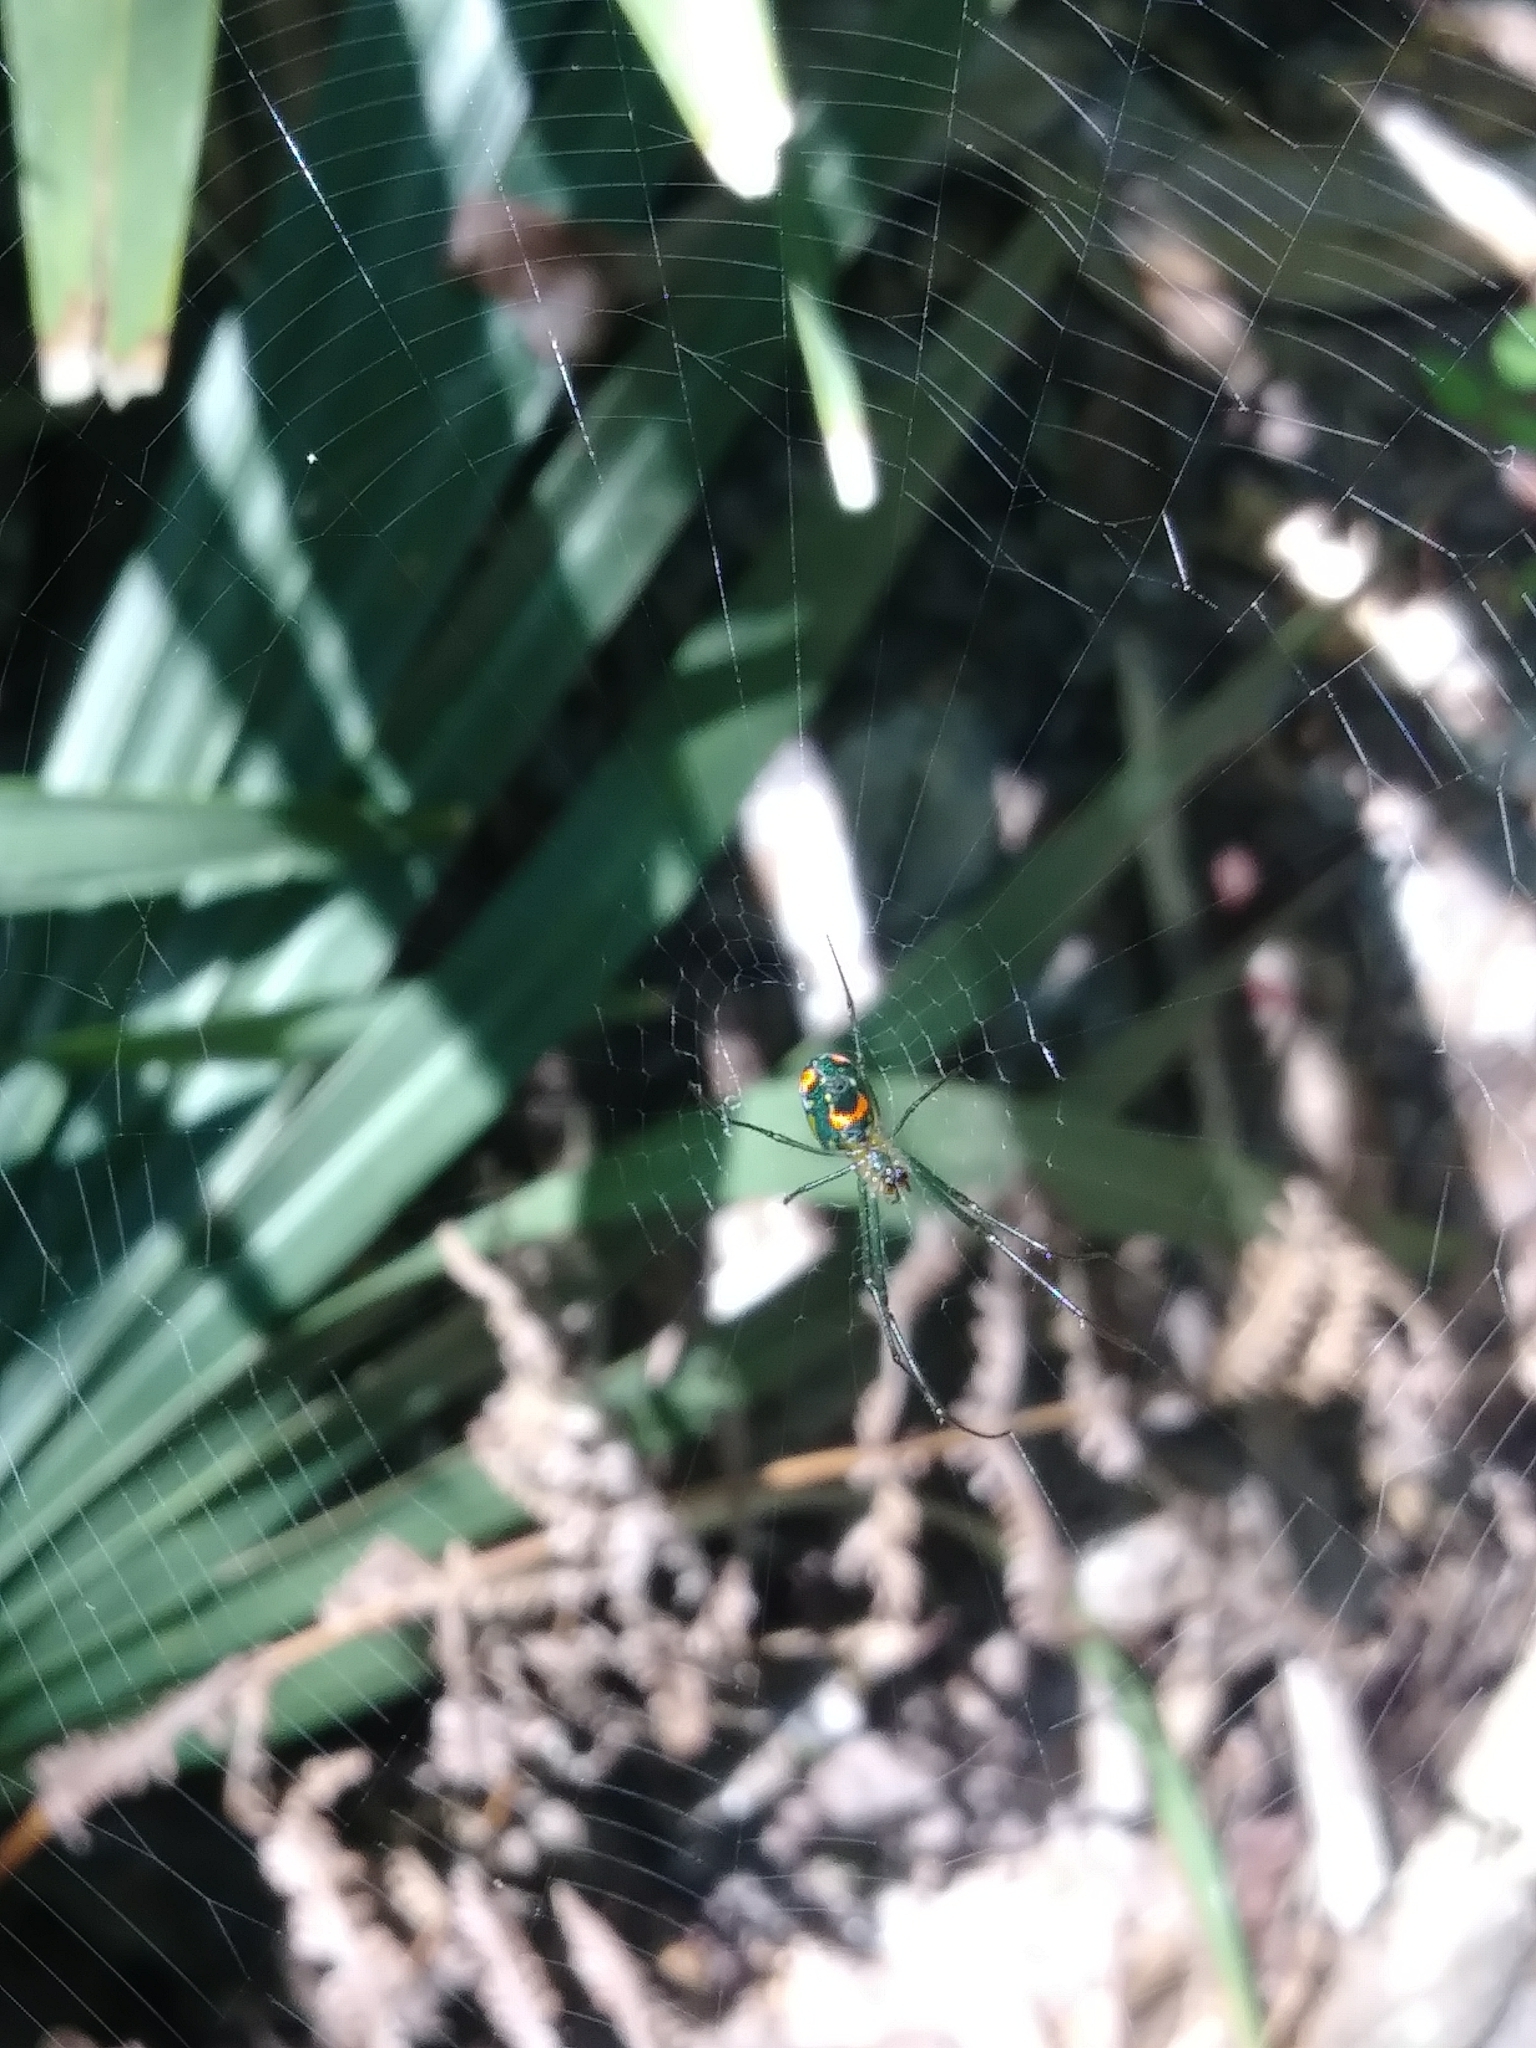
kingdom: Animalia
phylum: Arthropoda
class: Arachnida
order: Araneae
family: Tetragnathidae
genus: Leucauge
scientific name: Leucauge argyrobapta
